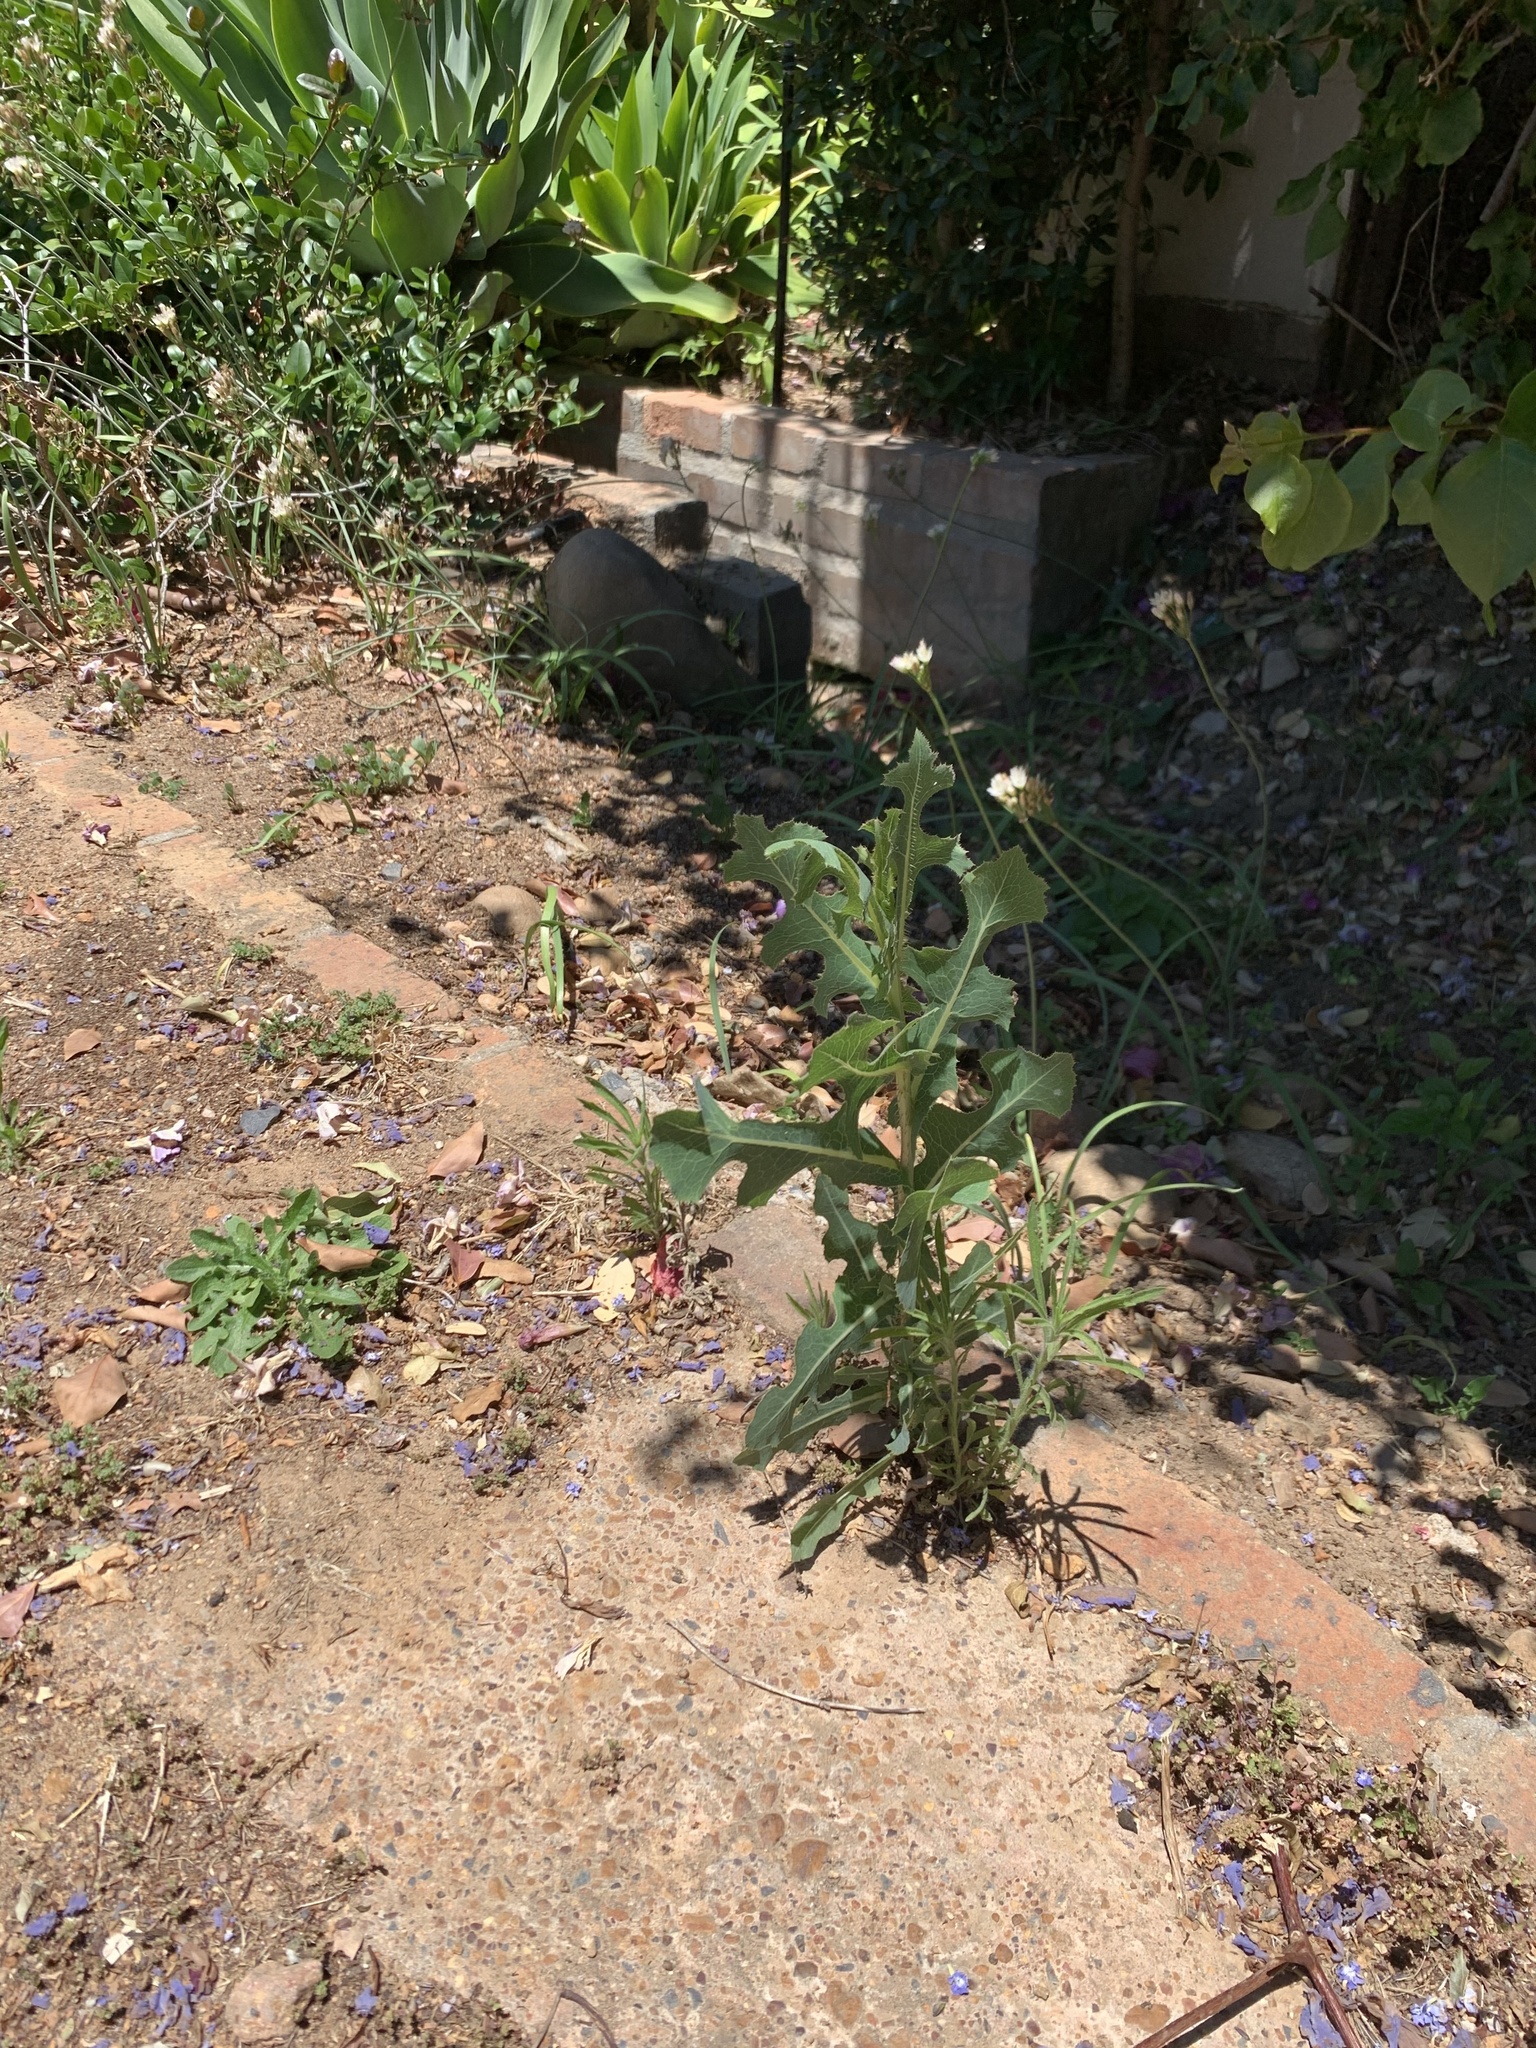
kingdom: Plantae
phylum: Tracheophyta
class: Magnoliopsida
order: Asterales
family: Asteraceae
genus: Lactuca
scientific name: Lactuca serriola
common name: Prickly lettuce
